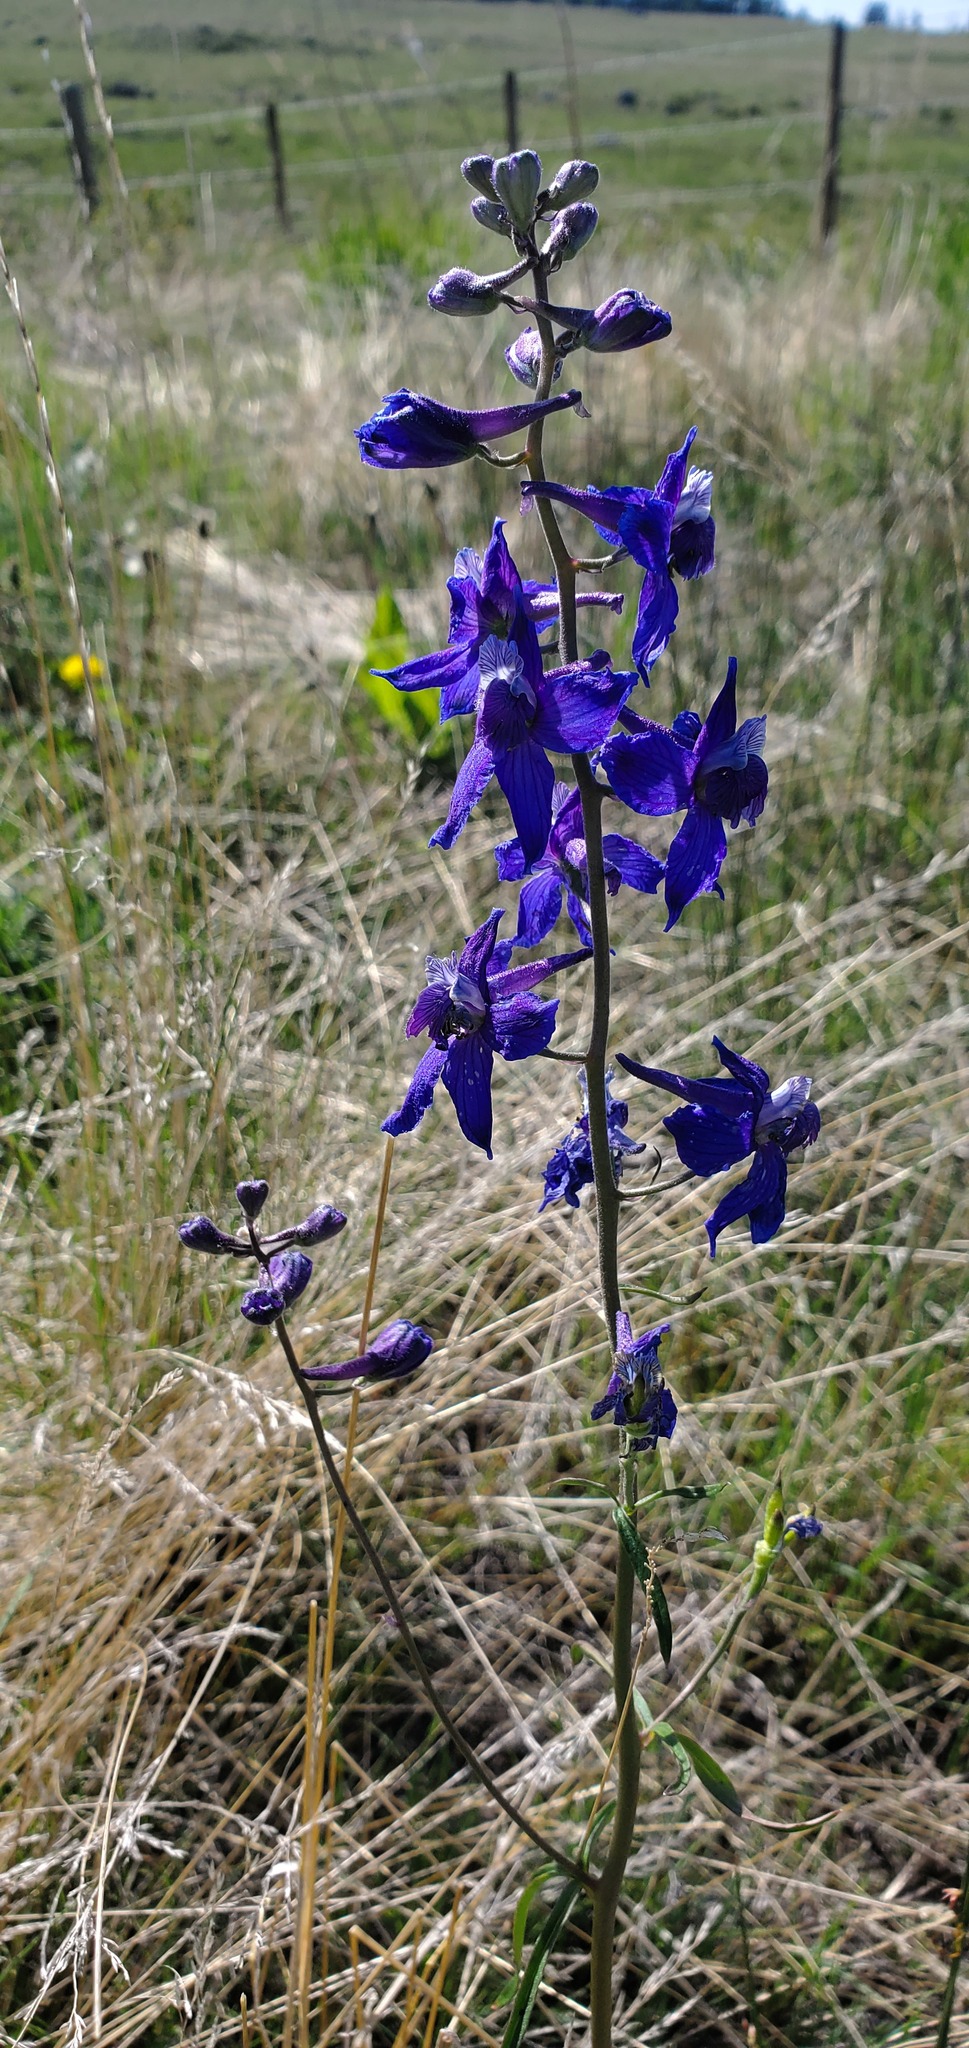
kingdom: Plantae
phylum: Tracheophyta
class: Magnoliopsida
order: Ranunculales
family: Ranunculaceae
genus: Delphinium
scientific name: Delphinium nuttallianum
